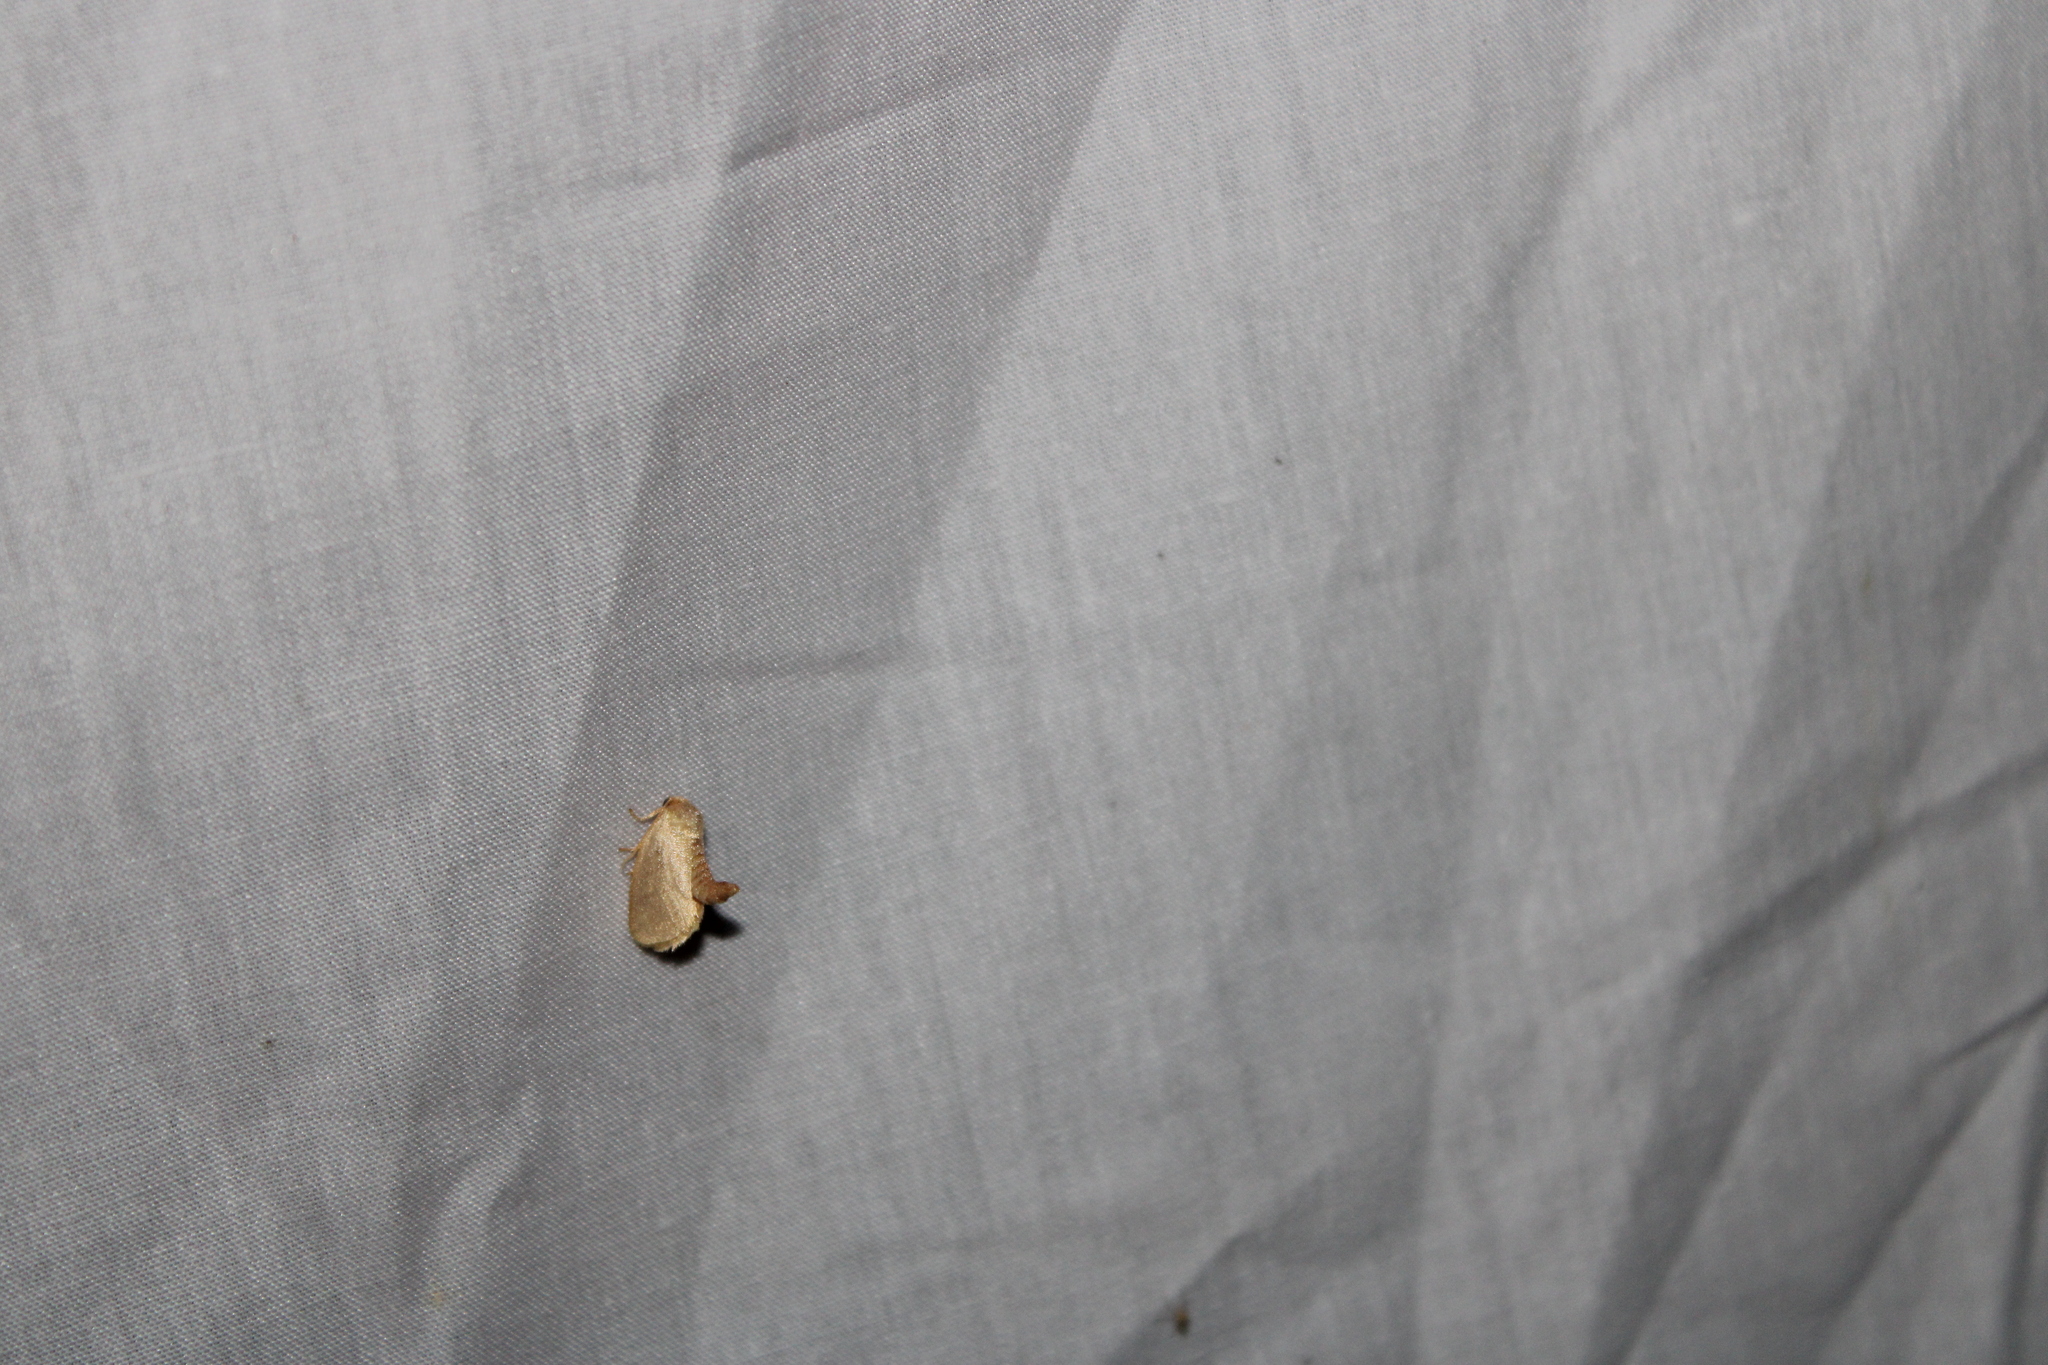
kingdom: Animalia
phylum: Arthropoda
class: Insecta
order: Lepidoptera
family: Limacodidae
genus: Tortricidia
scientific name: Tortricidia pallida
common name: Red-crossed button slug moth
